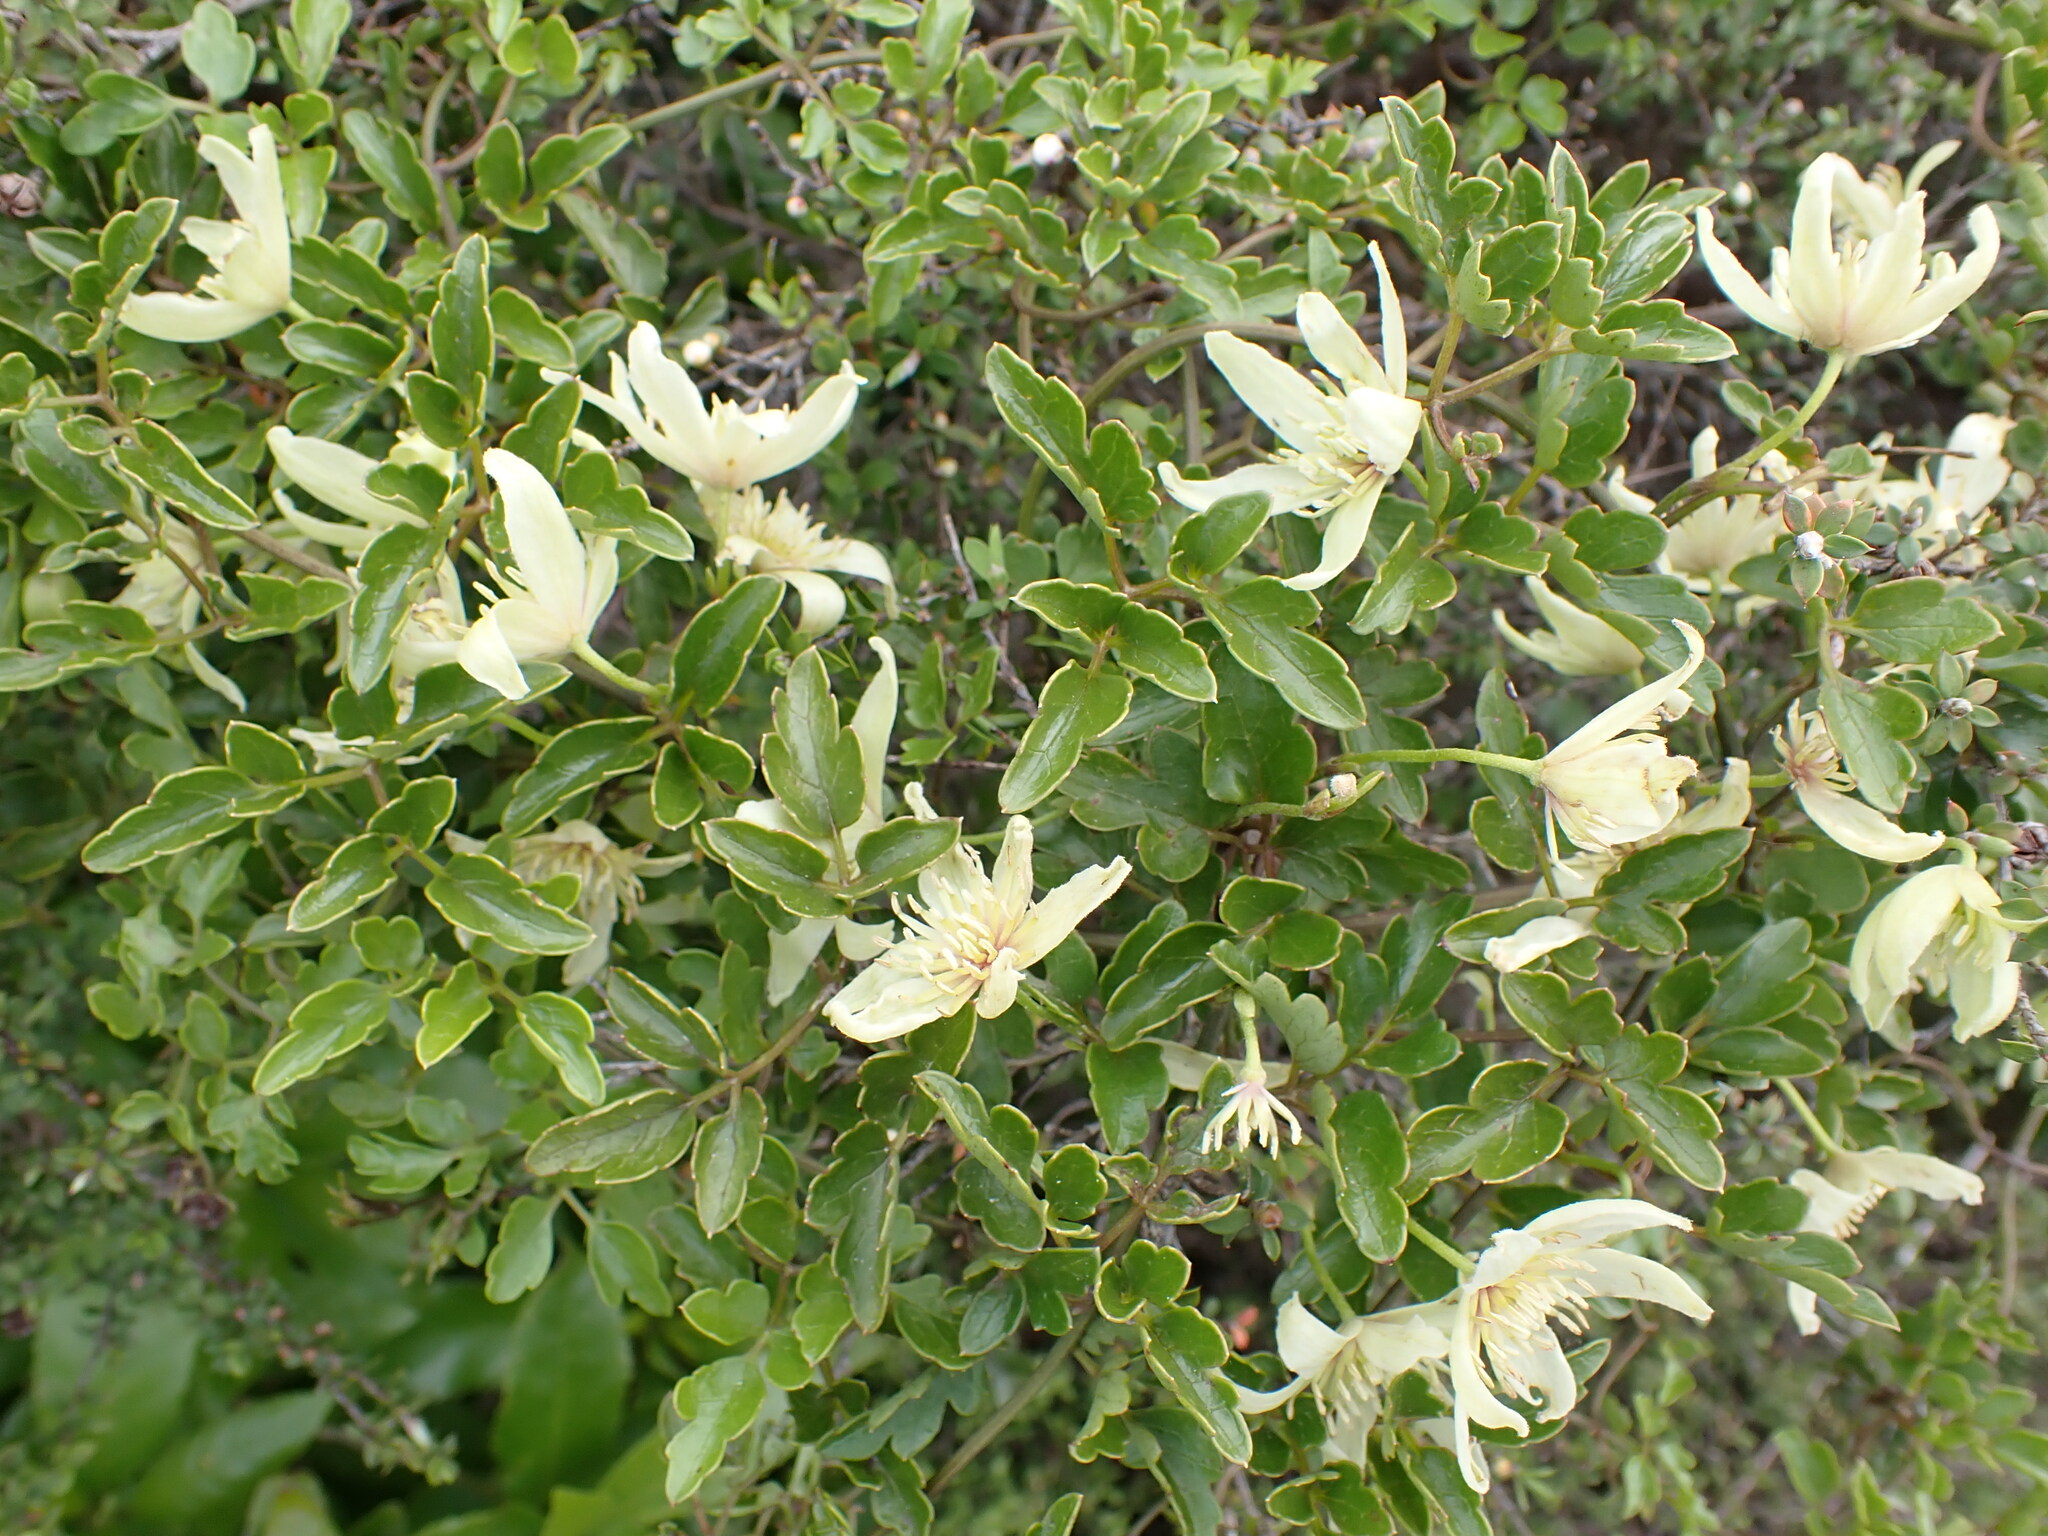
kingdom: Plantae
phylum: Tracheophyta
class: Magnoliopsida
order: Ranunculales
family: Ranunculaceae
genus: Clematis
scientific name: Clematis forsteri
